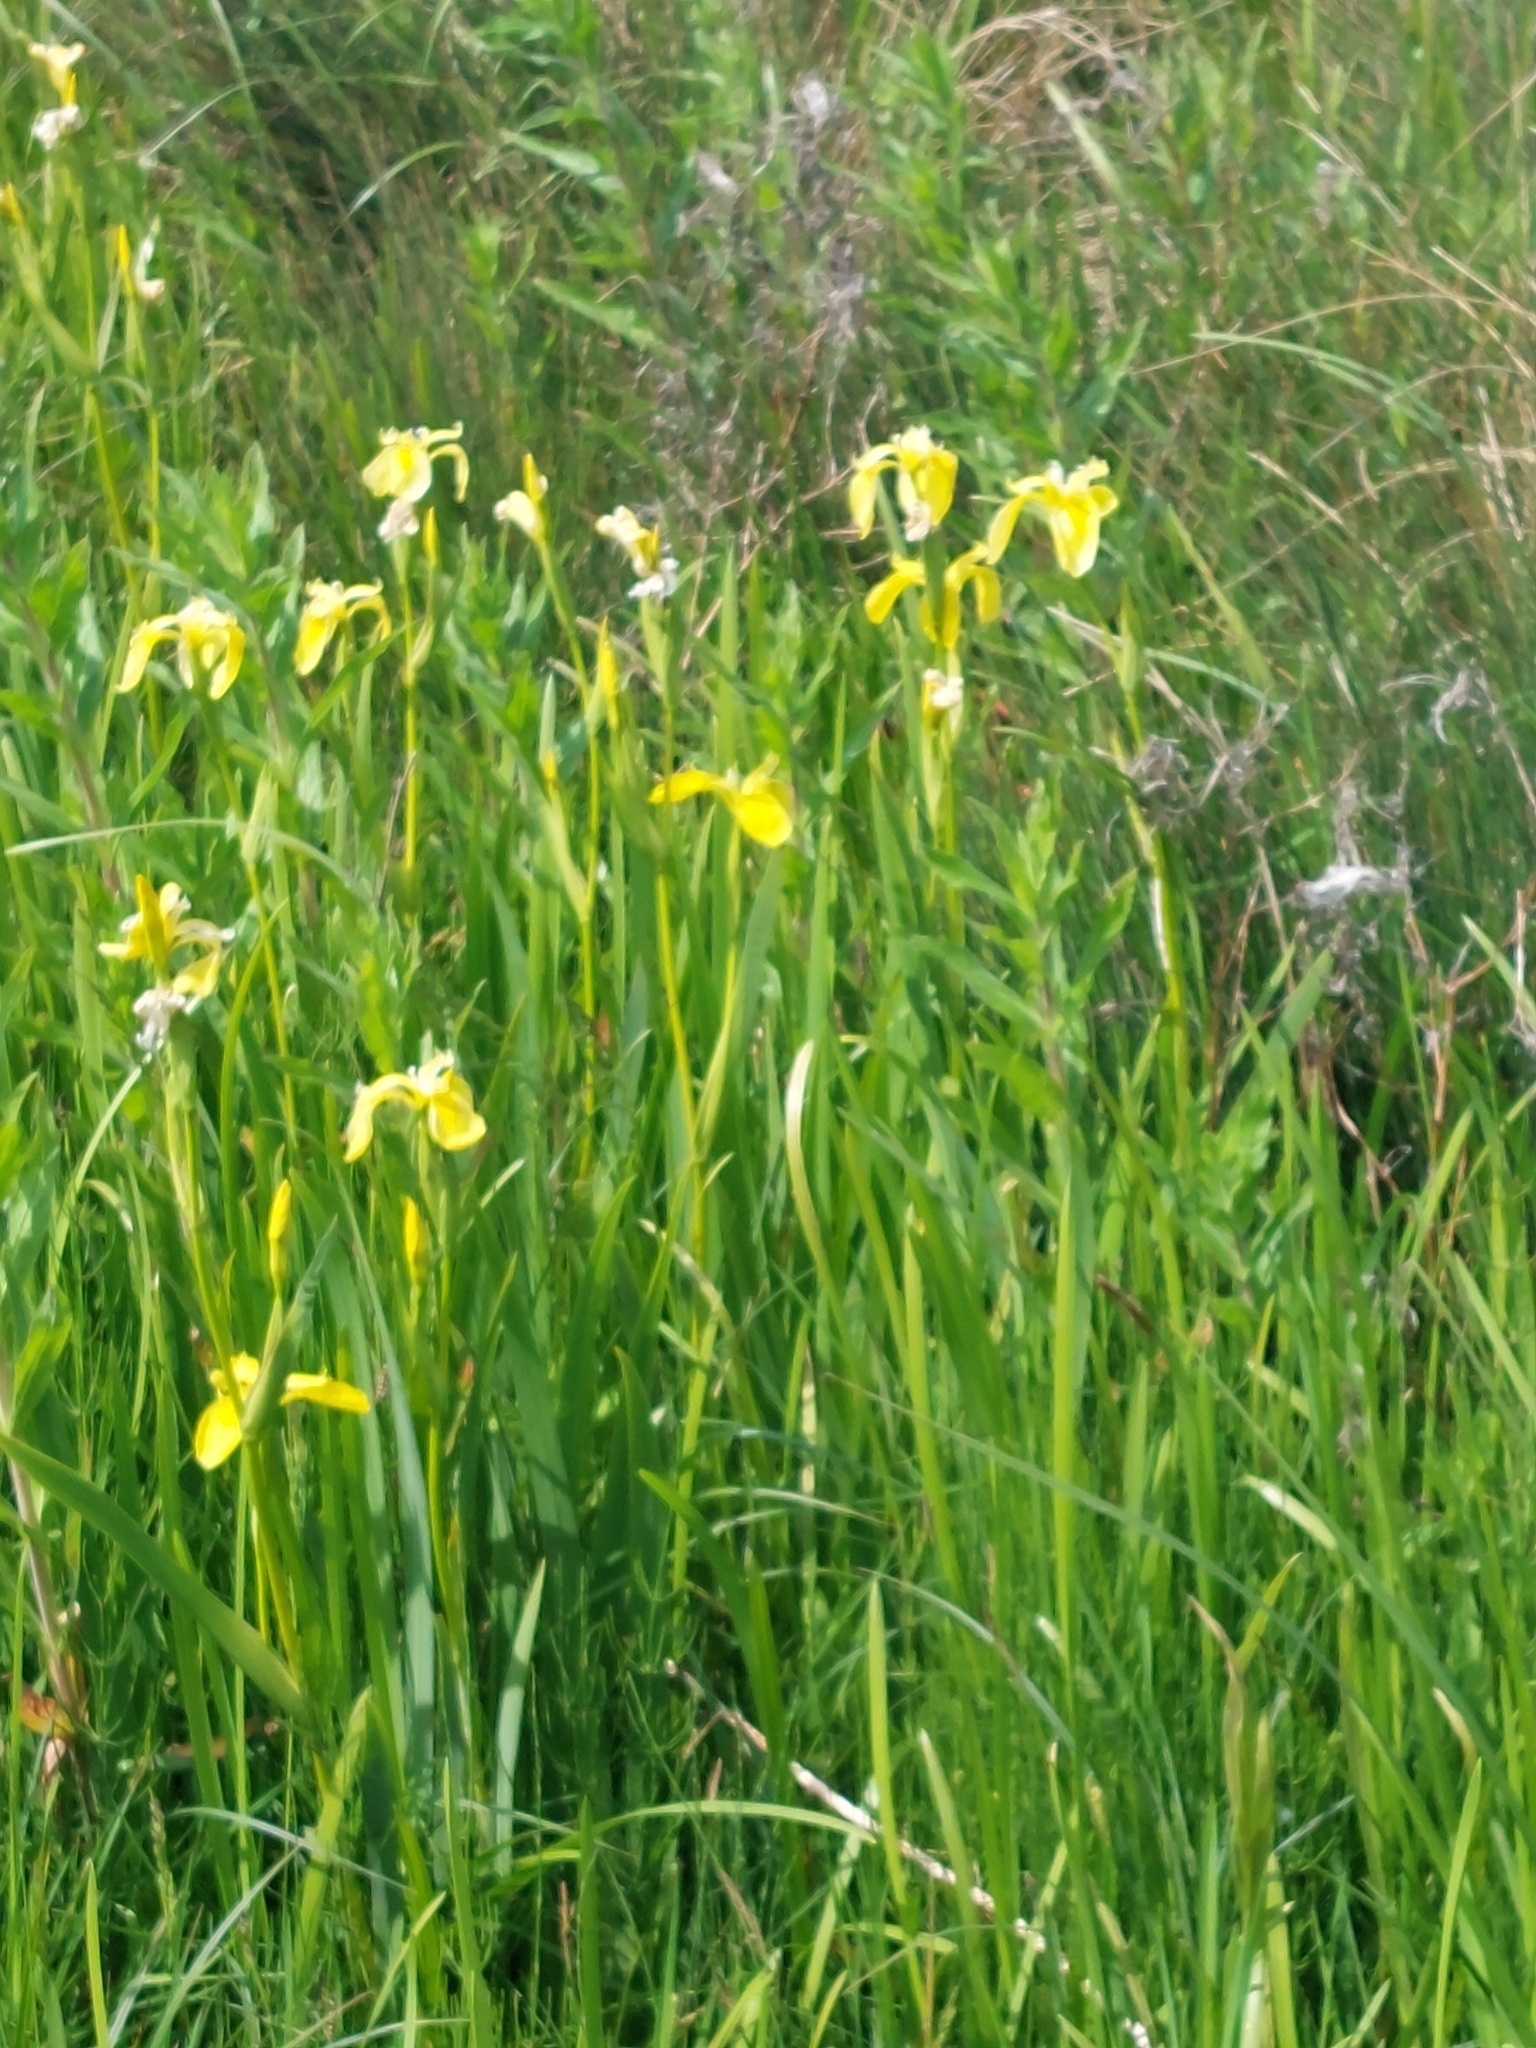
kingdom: Plantae
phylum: Tracheophyta
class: Liliopsida
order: Asparagales
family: Iridaceae
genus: Iris
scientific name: Iris pseudacorus
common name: Yellow flag
